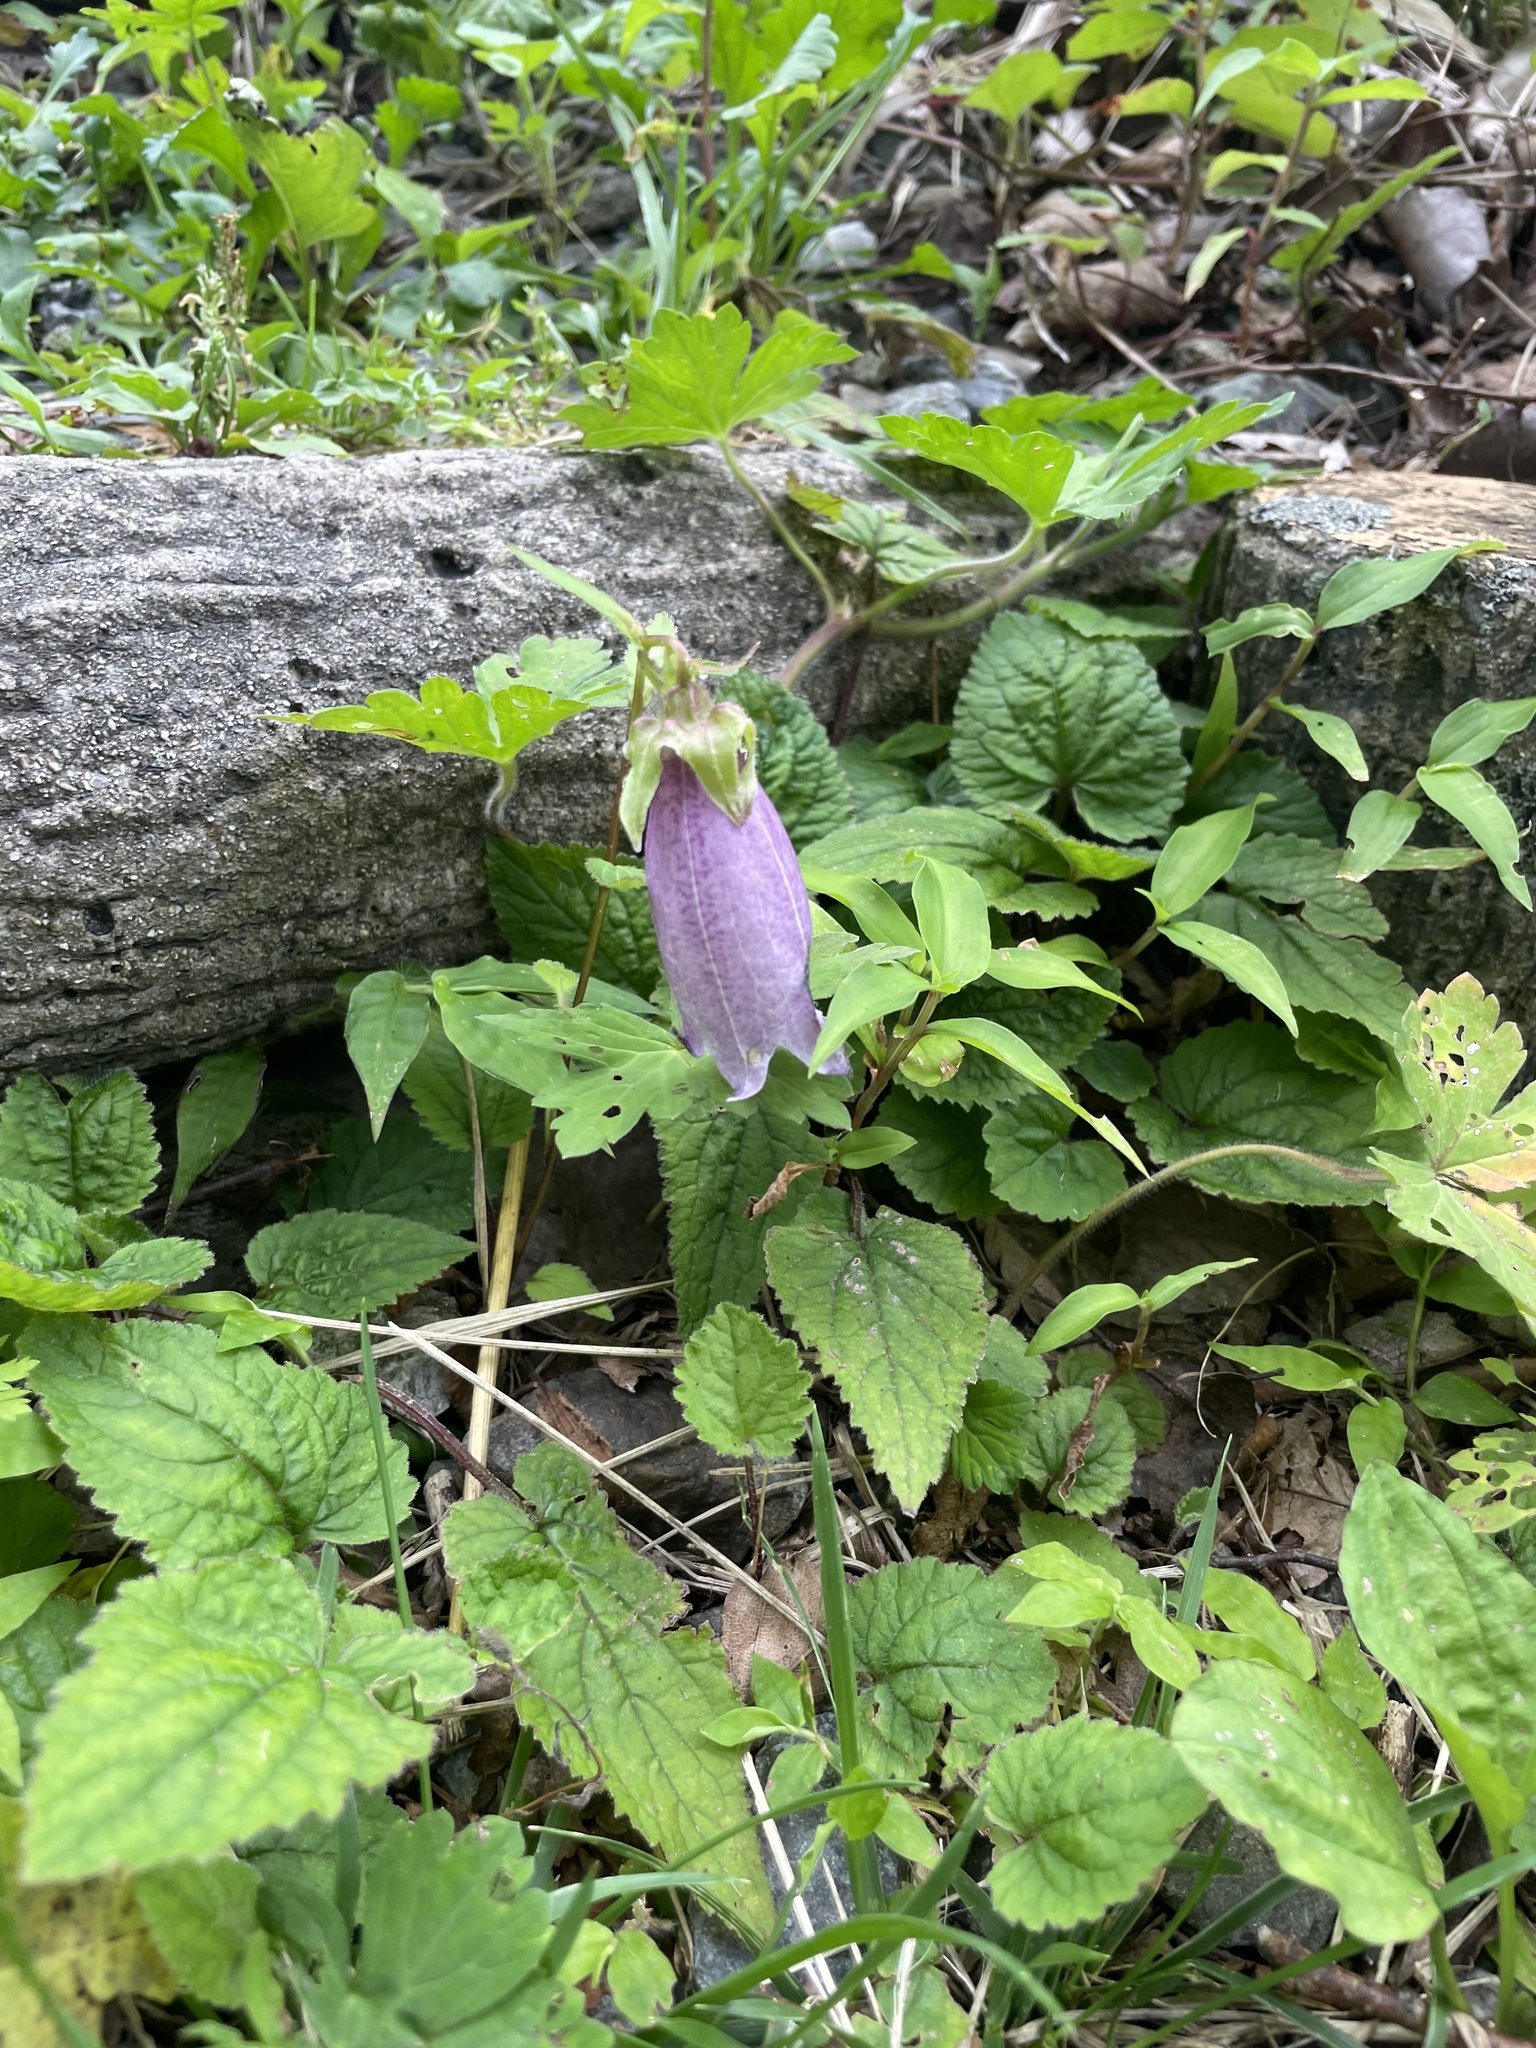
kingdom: Plantae
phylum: Tracheophyta
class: Magnoliopsida
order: Asterales
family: Campanulaceae
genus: Campanula
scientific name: Campanula punctata
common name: Spotted bellflower
